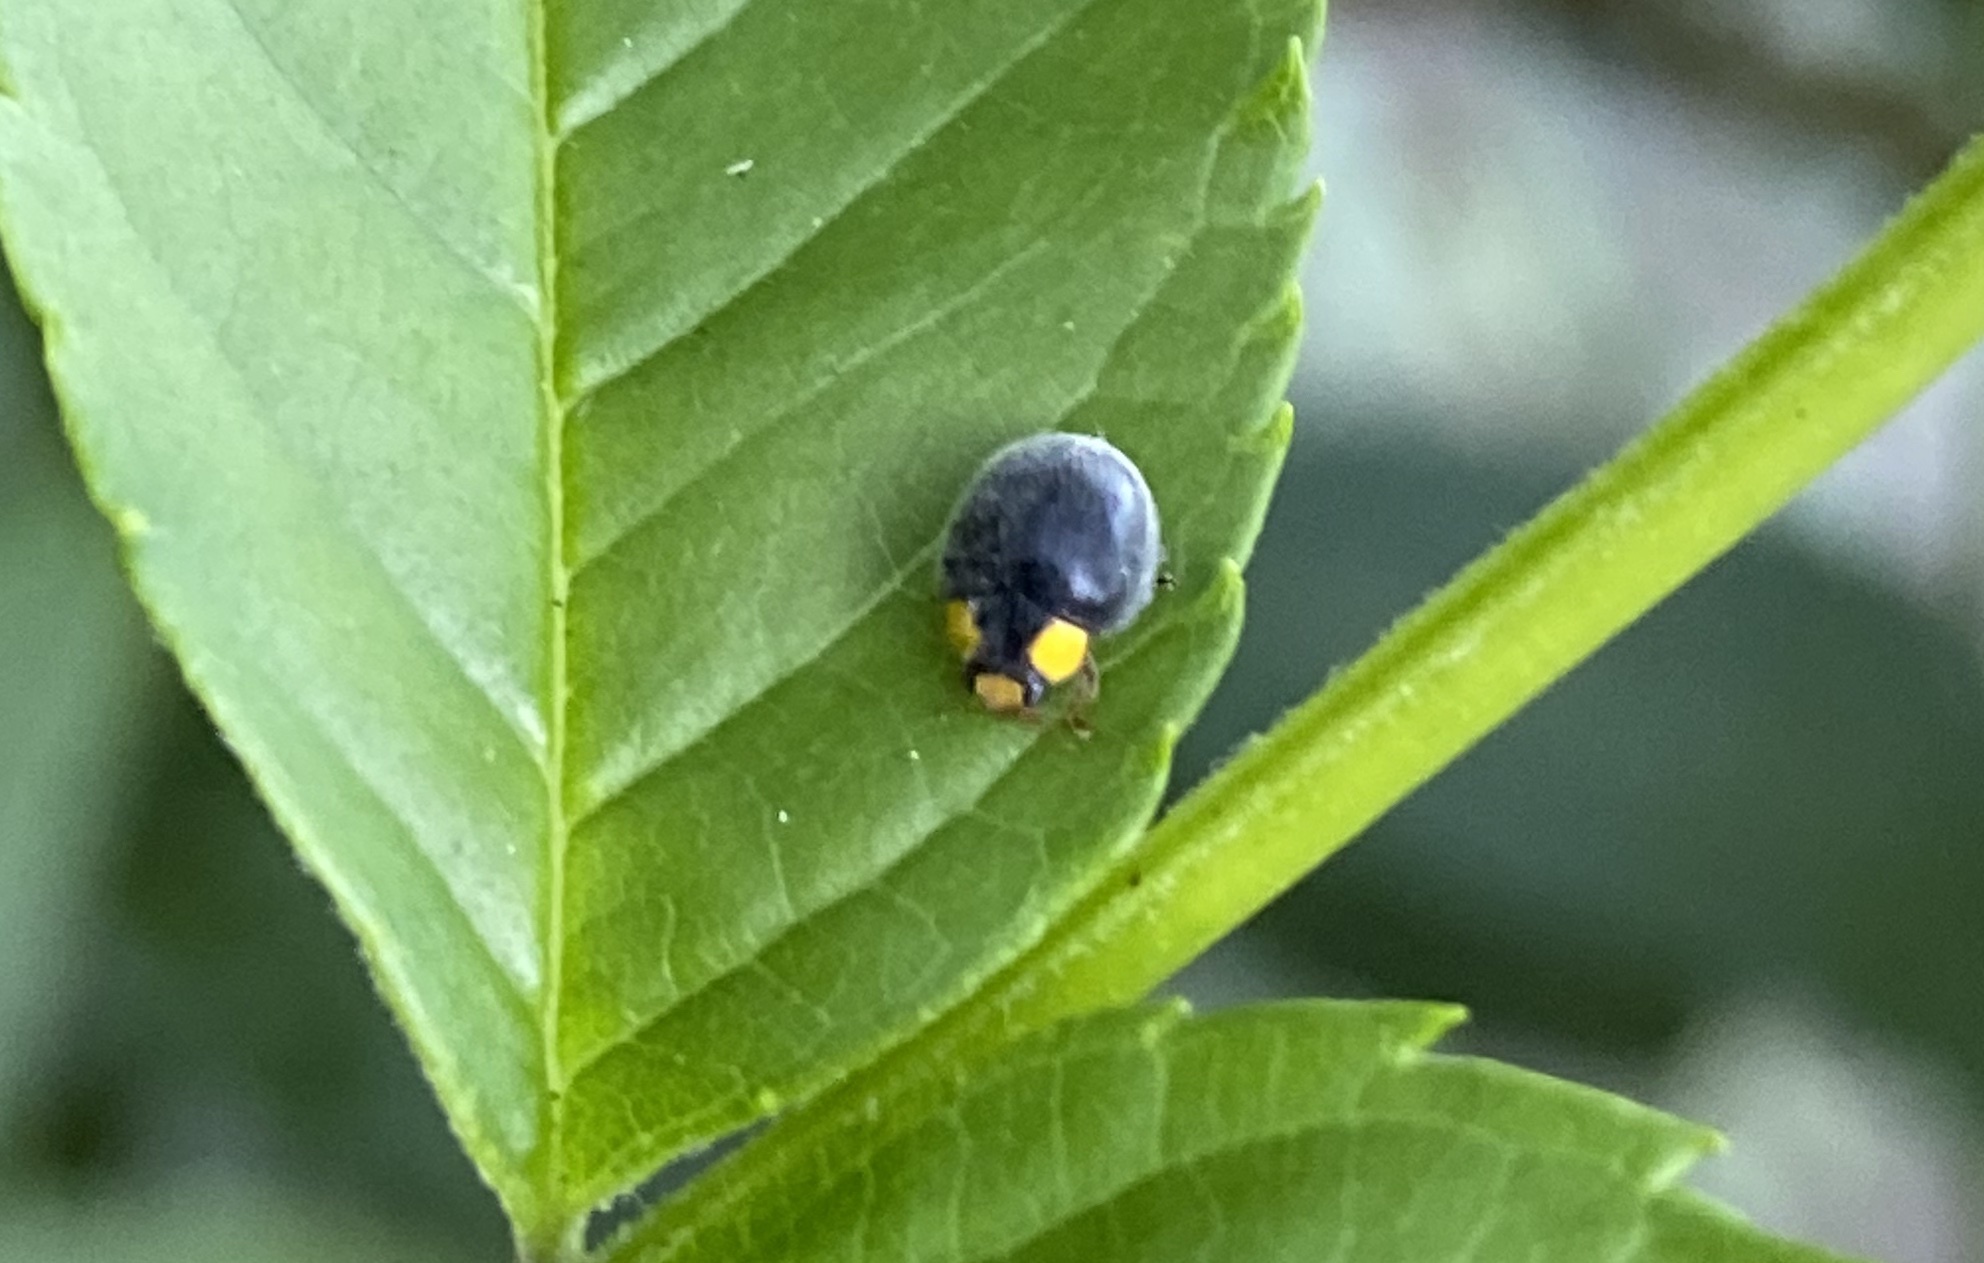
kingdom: Animalia
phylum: Arthropoda
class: Insecta
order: Coleoptera
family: Coccinellidae
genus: Scymnodes
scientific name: Scymnodes lividigaster
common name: Yellowshouldered lady beetle
